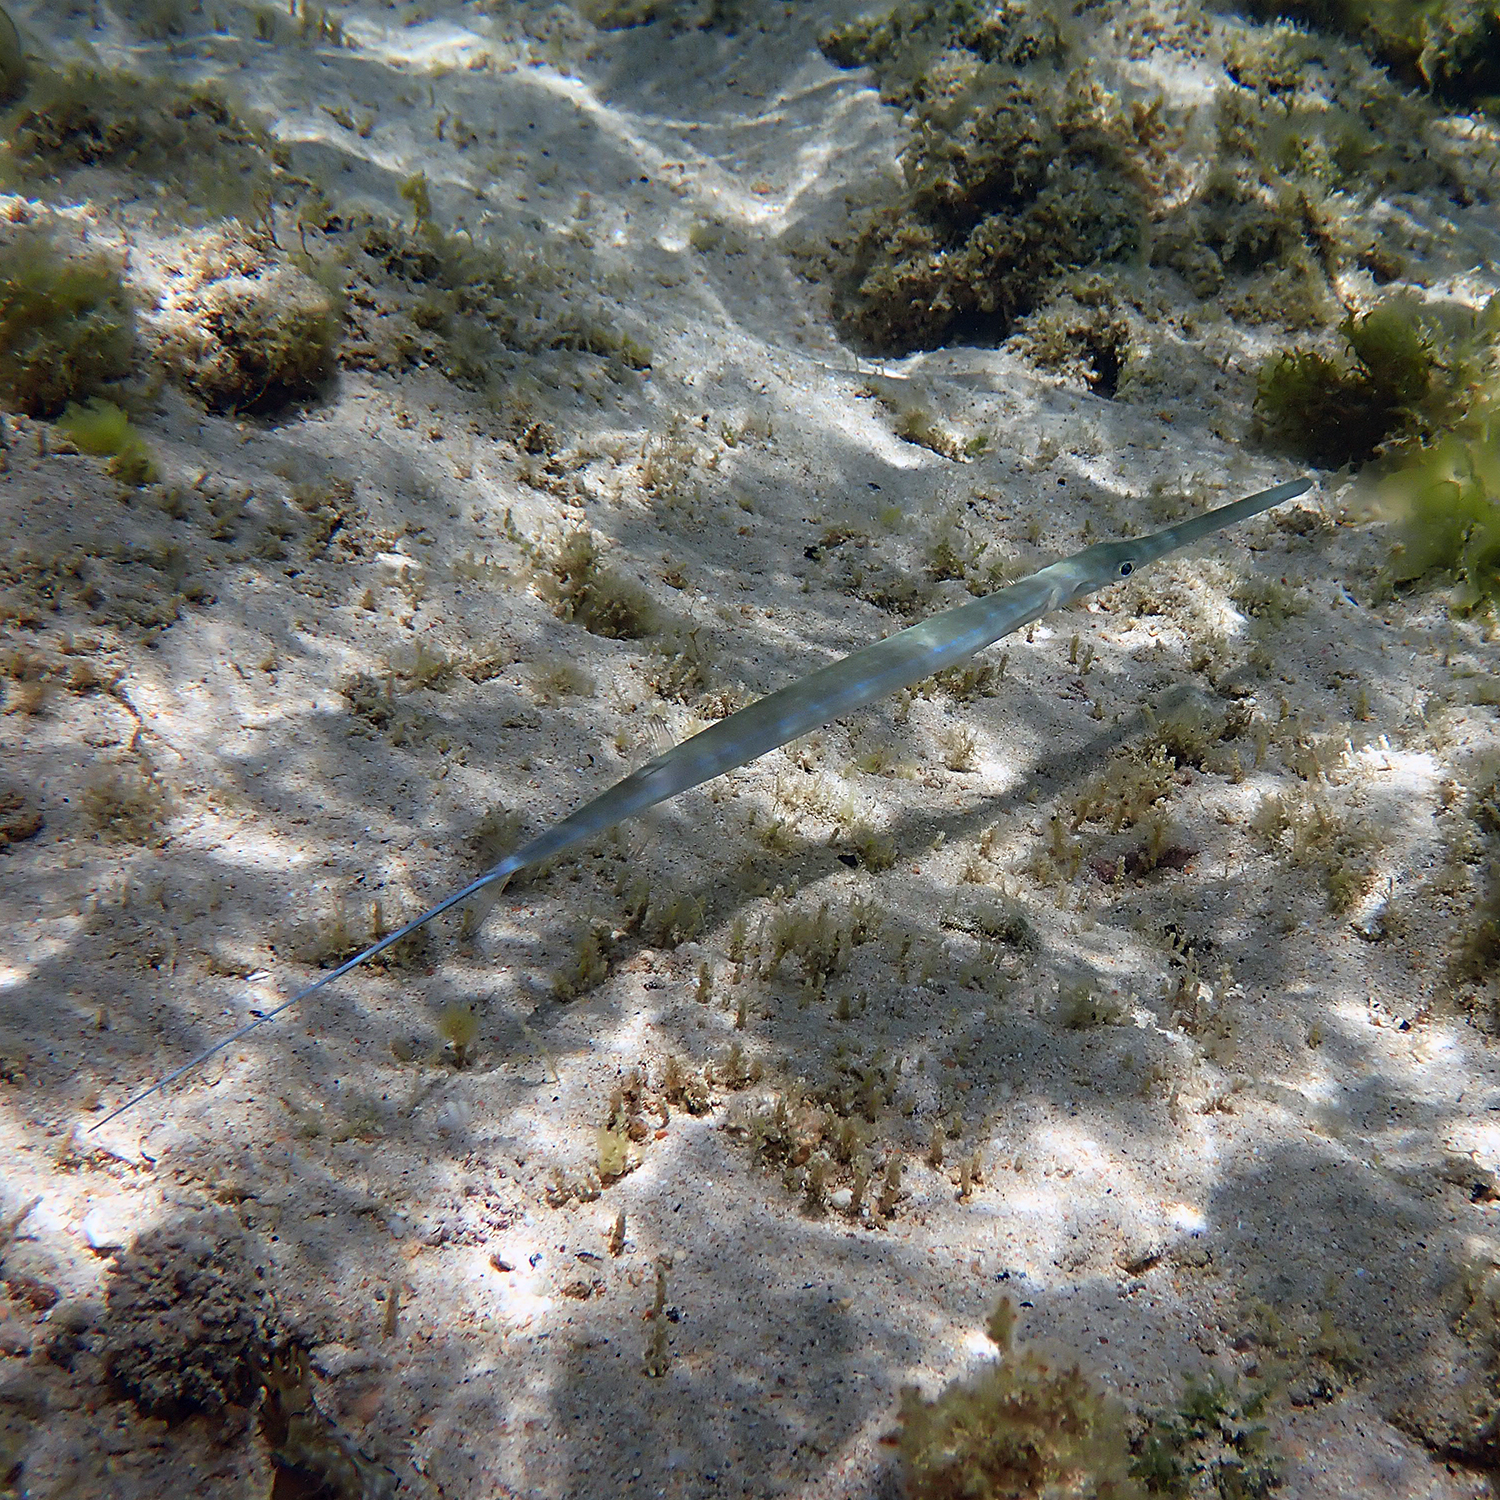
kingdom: Animalia
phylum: Chordata
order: Syngnathiformes
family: Fistulariidae
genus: Fistularia
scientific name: Fistularia commersonii
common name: Bluespotted cornetfish
